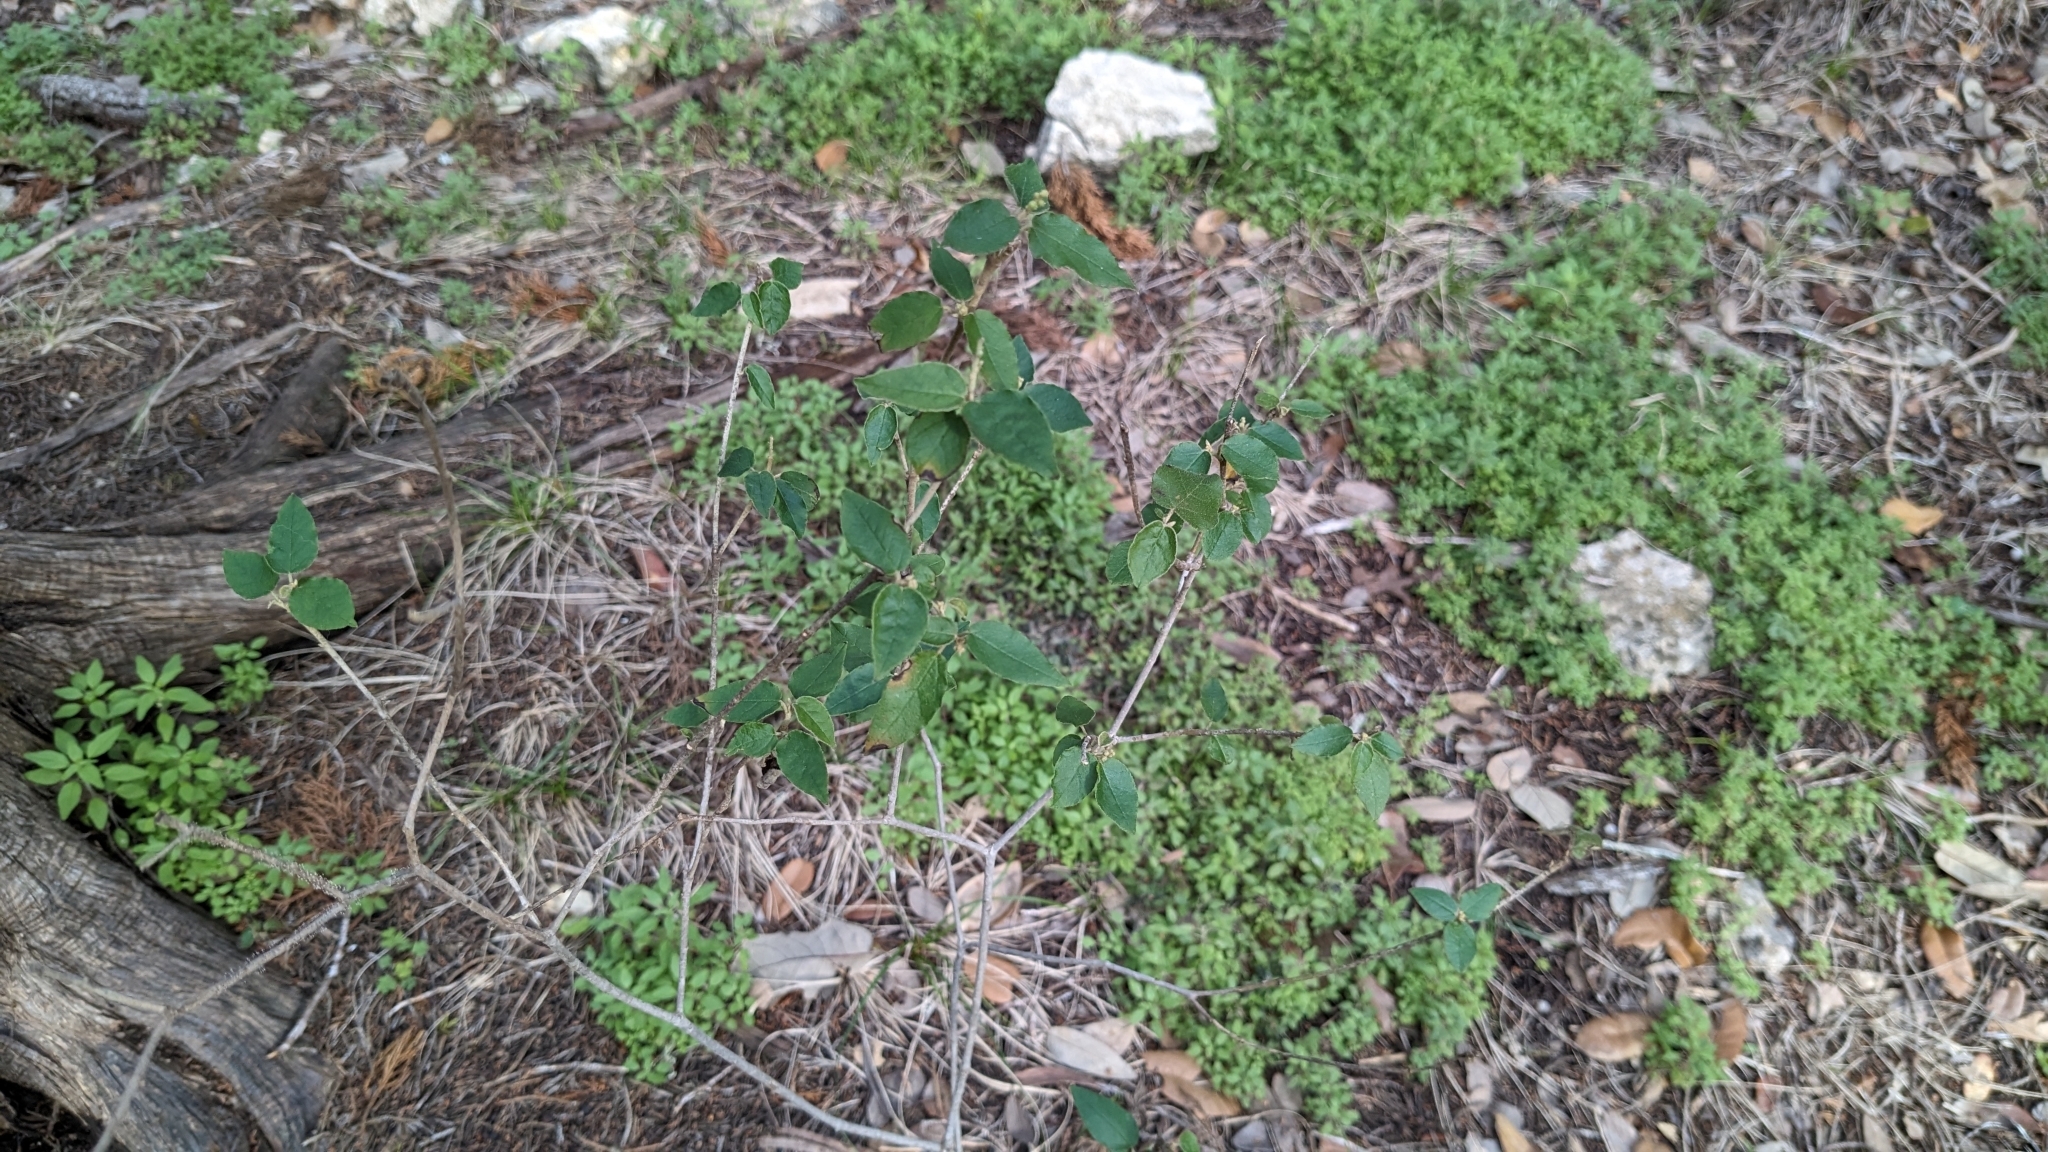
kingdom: Plantae
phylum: Tracheophyta
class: Magnoliopsida
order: Malpighiales
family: Euphorbiaceae
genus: Croton
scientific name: Croton fruticulosus
